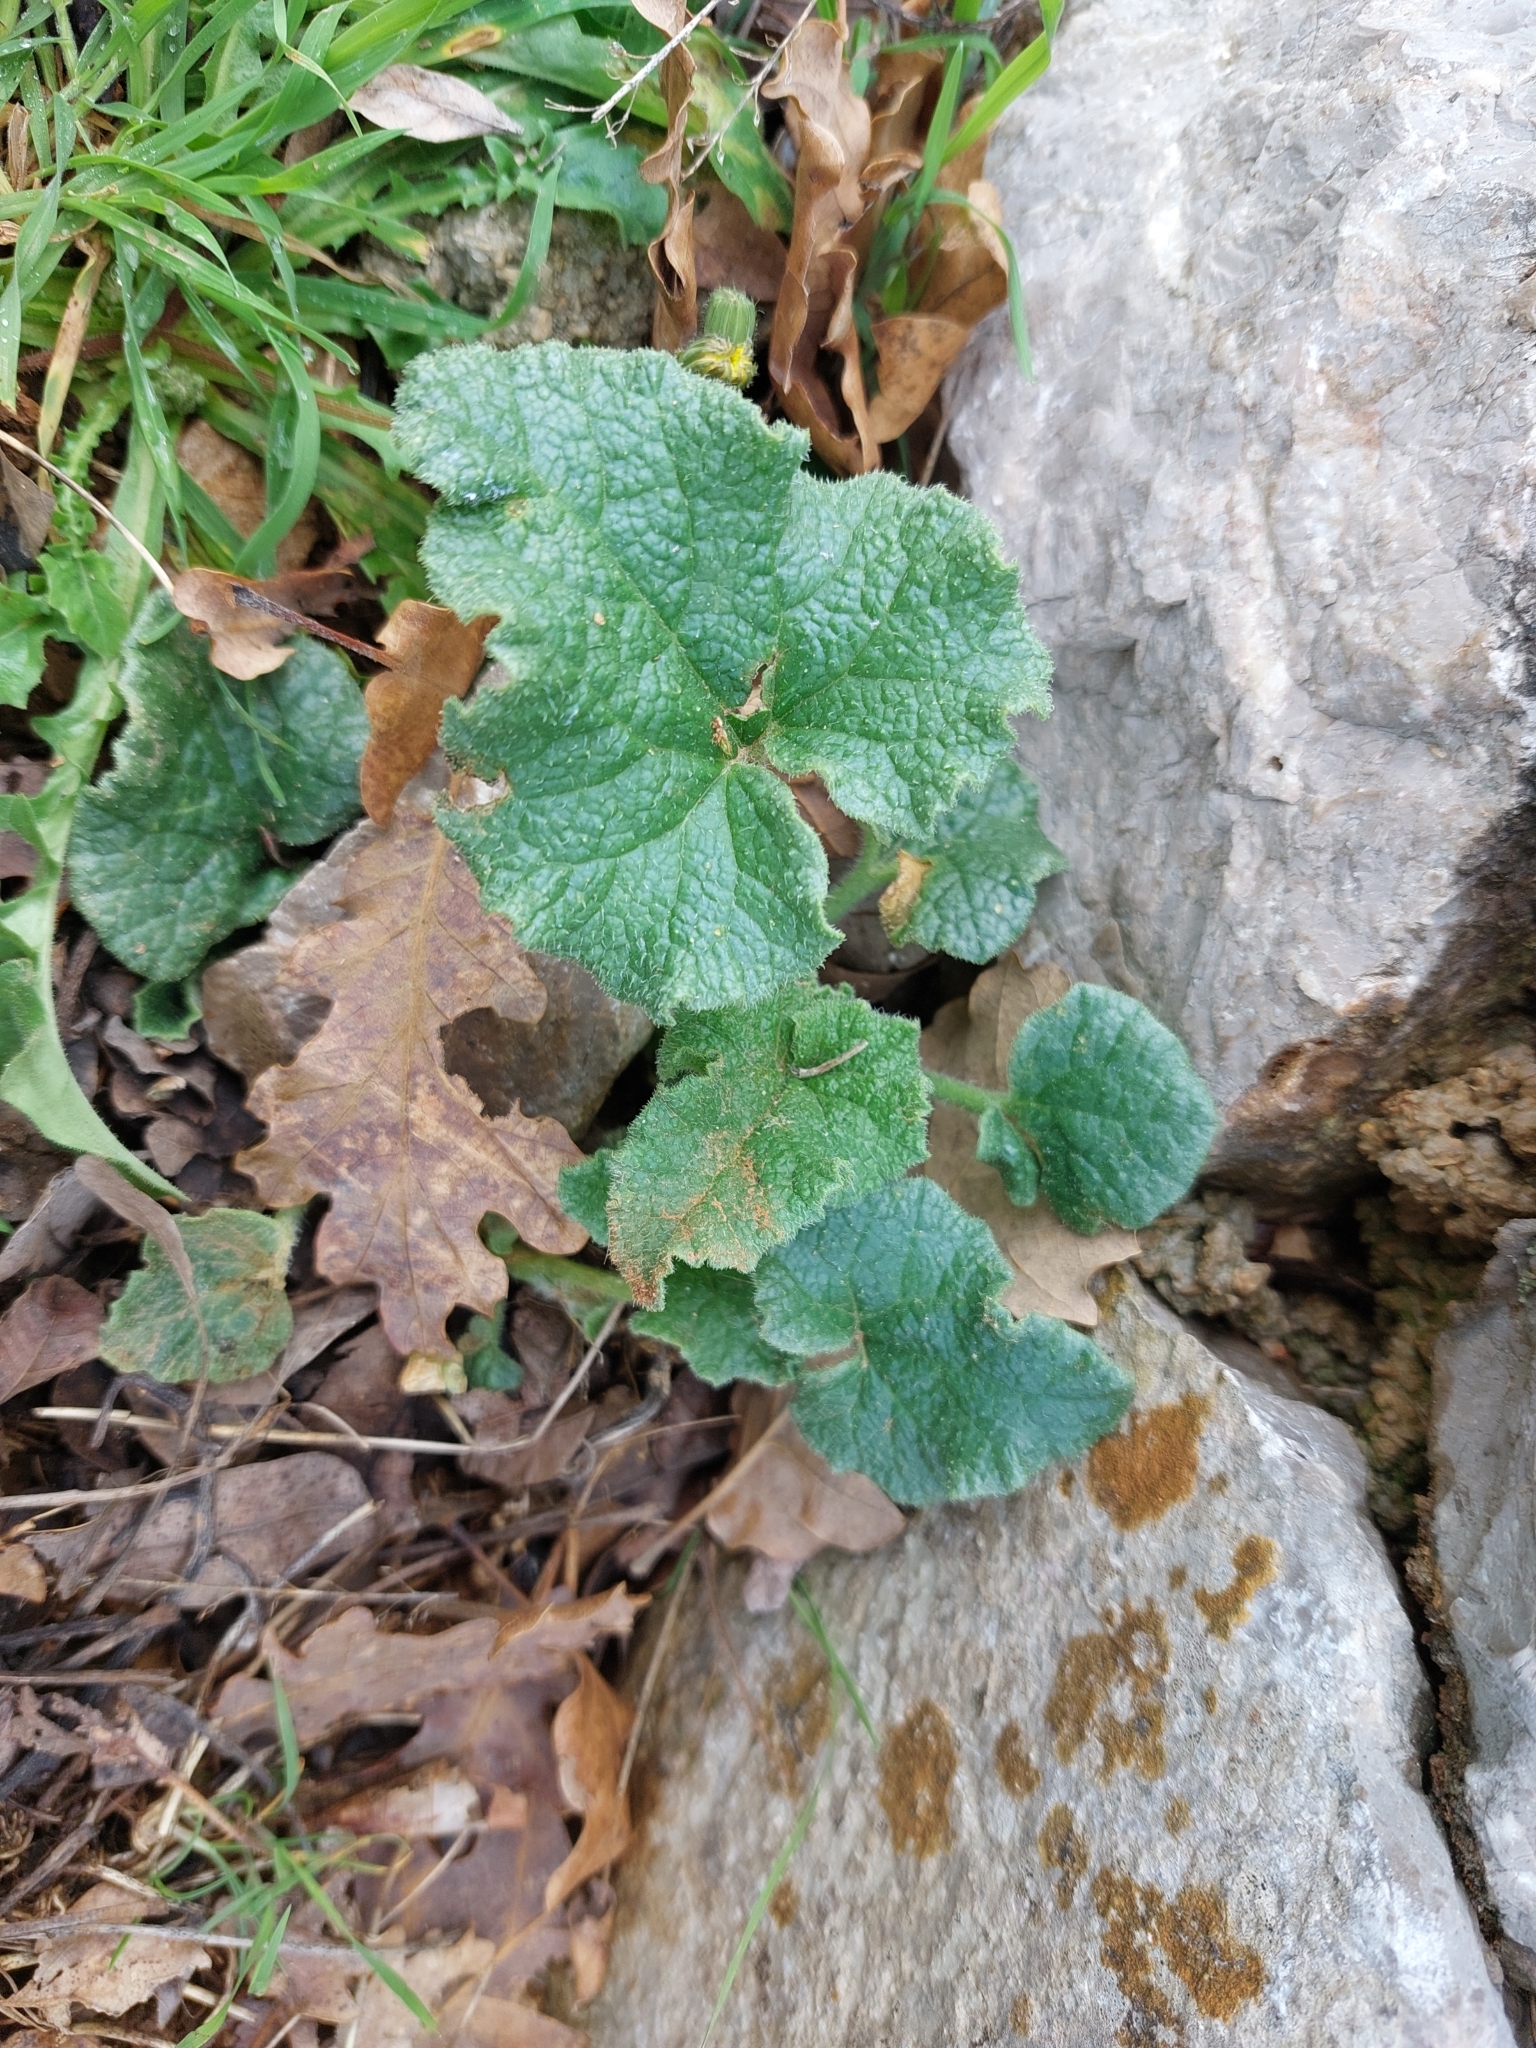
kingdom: Plantae
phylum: Tracheophyta
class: Magnoliopsida
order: Cucurbitales
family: Cucurbitaceae
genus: Ecballium
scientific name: Ecballium elaterium
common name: Squirting cucumber
